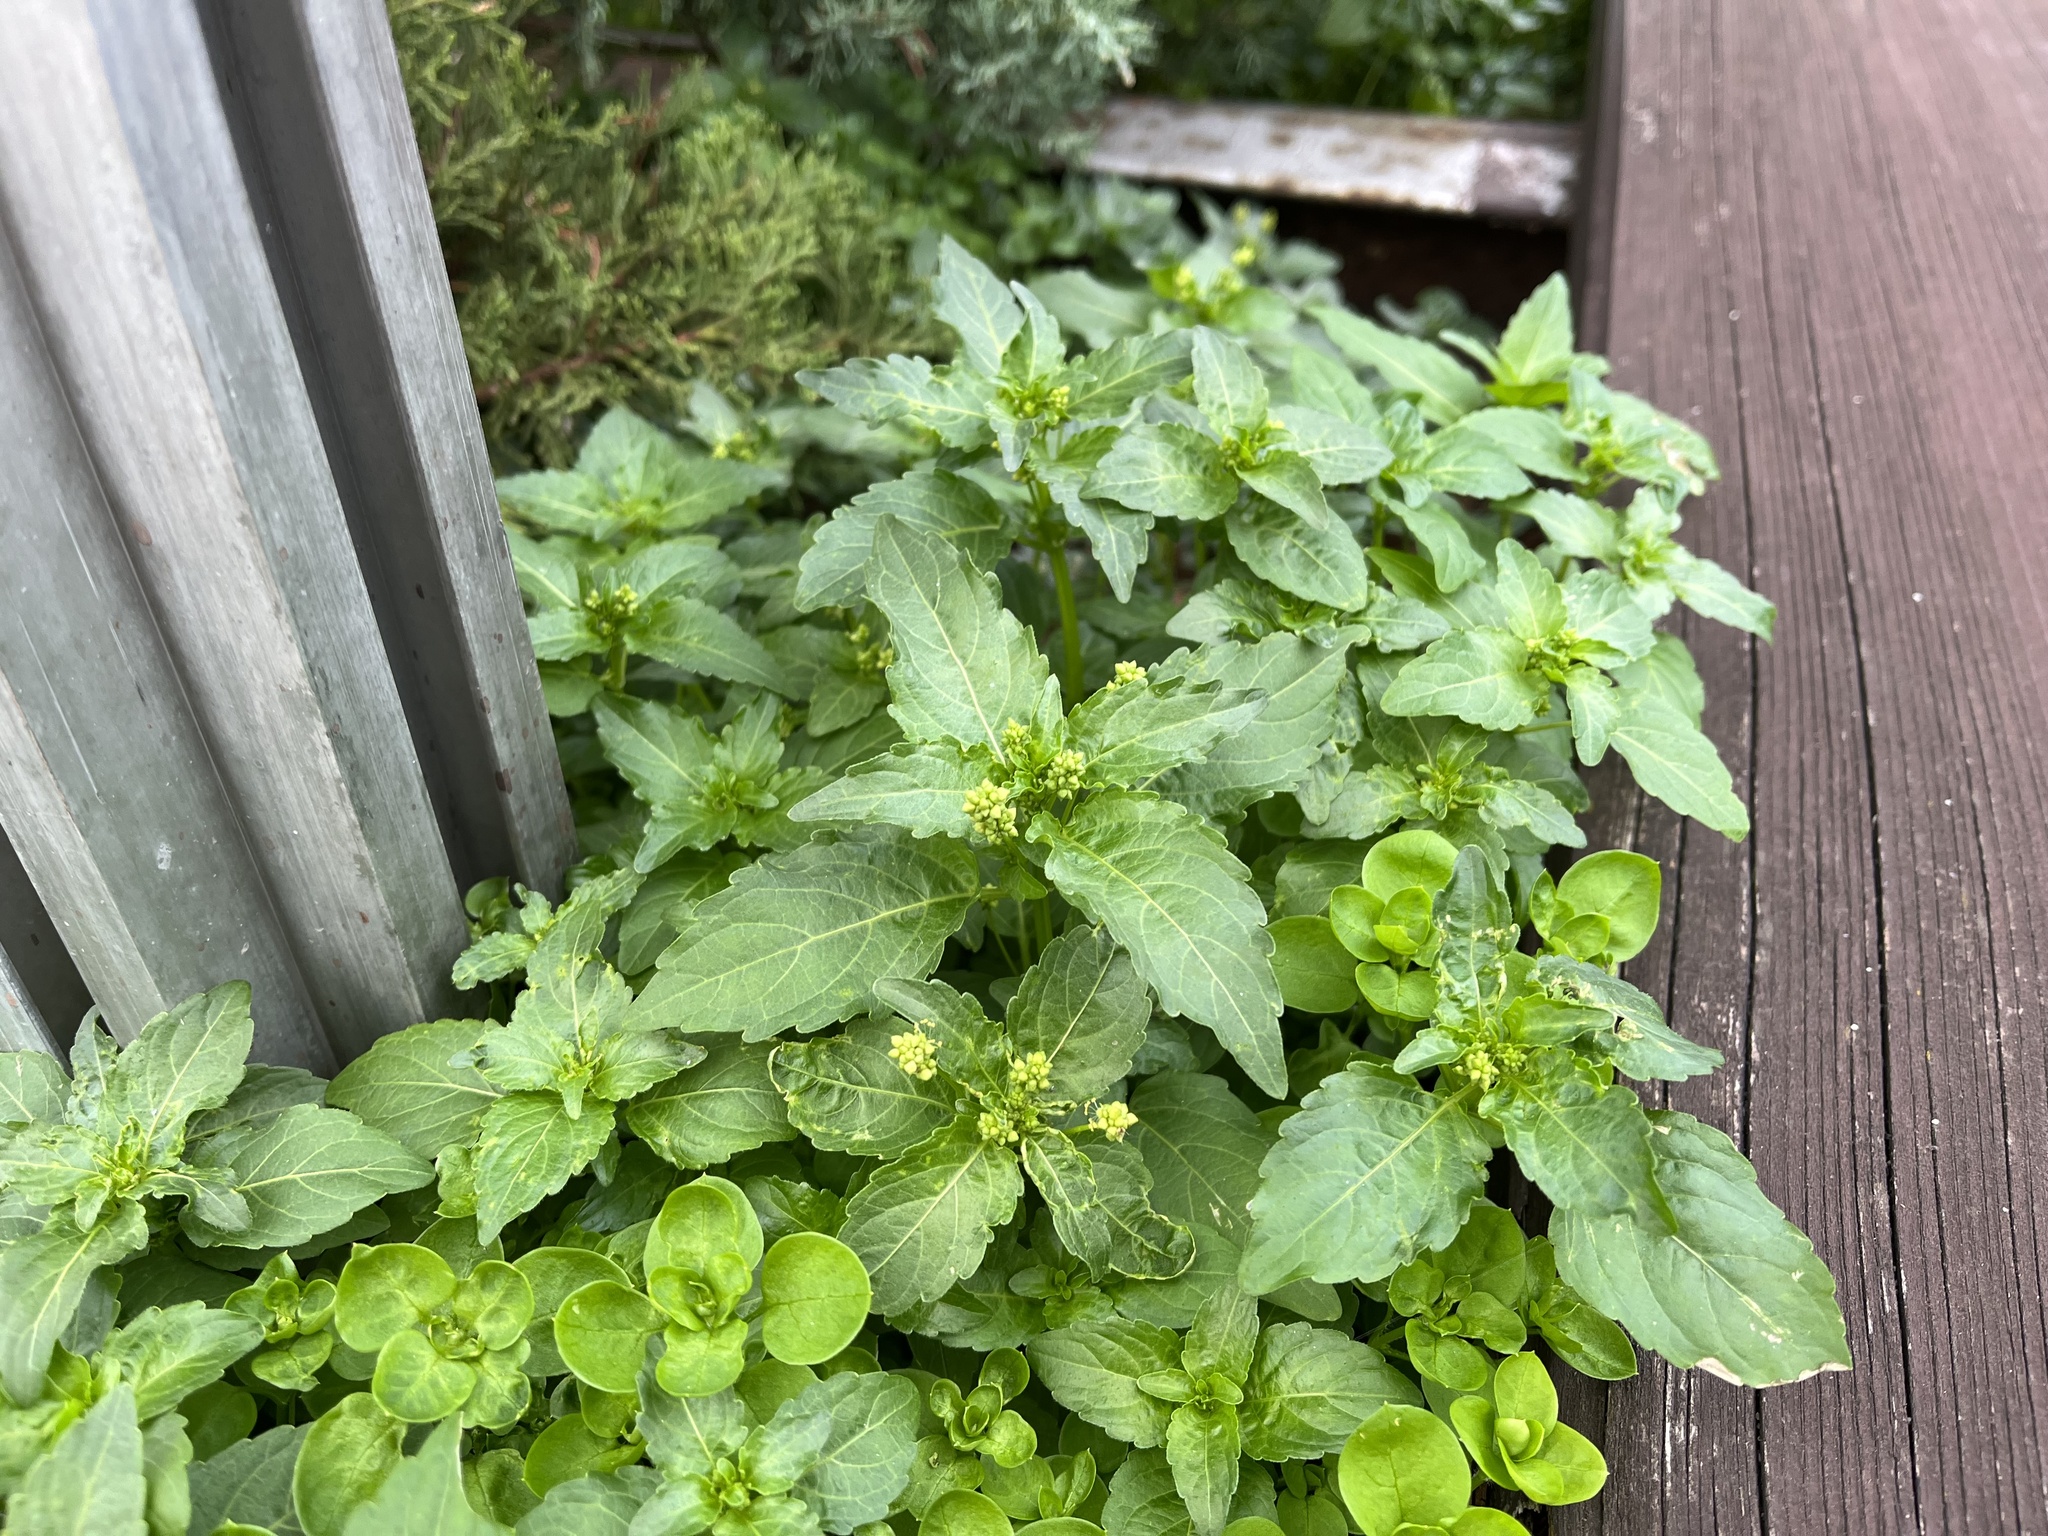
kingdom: Plantae
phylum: Tracheophyta
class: Magnoliopsida
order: Malpighiales
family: Euphorbiaceae
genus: Mercurialis
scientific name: Mercurialis annua
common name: Annual mercury
